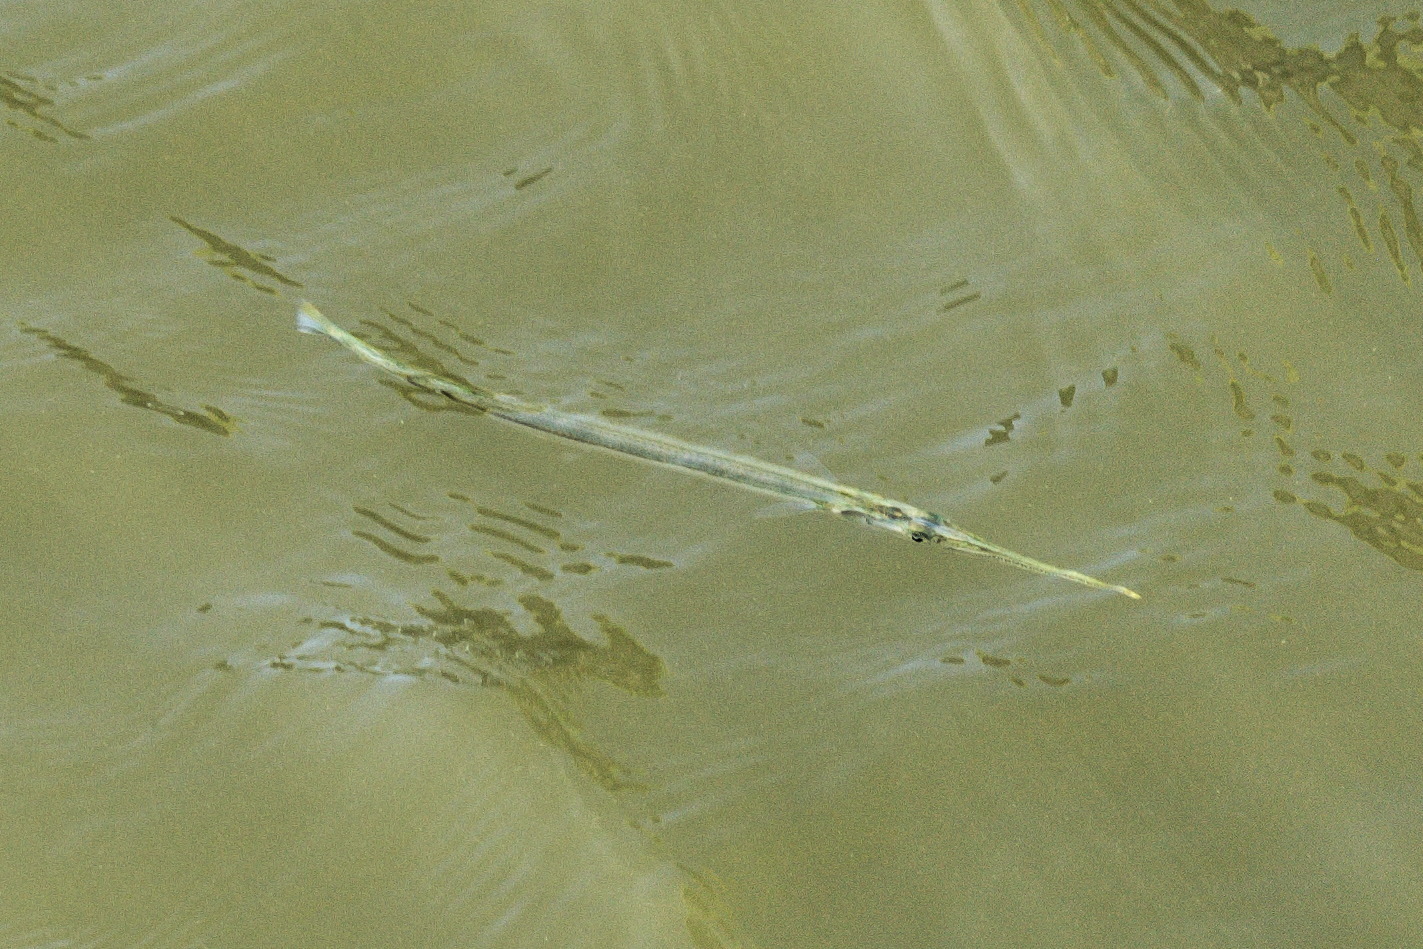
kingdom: Animalia
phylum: Chordata
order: Beloniformes
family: Belonidae
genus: Strongylura
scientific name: Strongylura marina
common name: Atlantic needlefish
